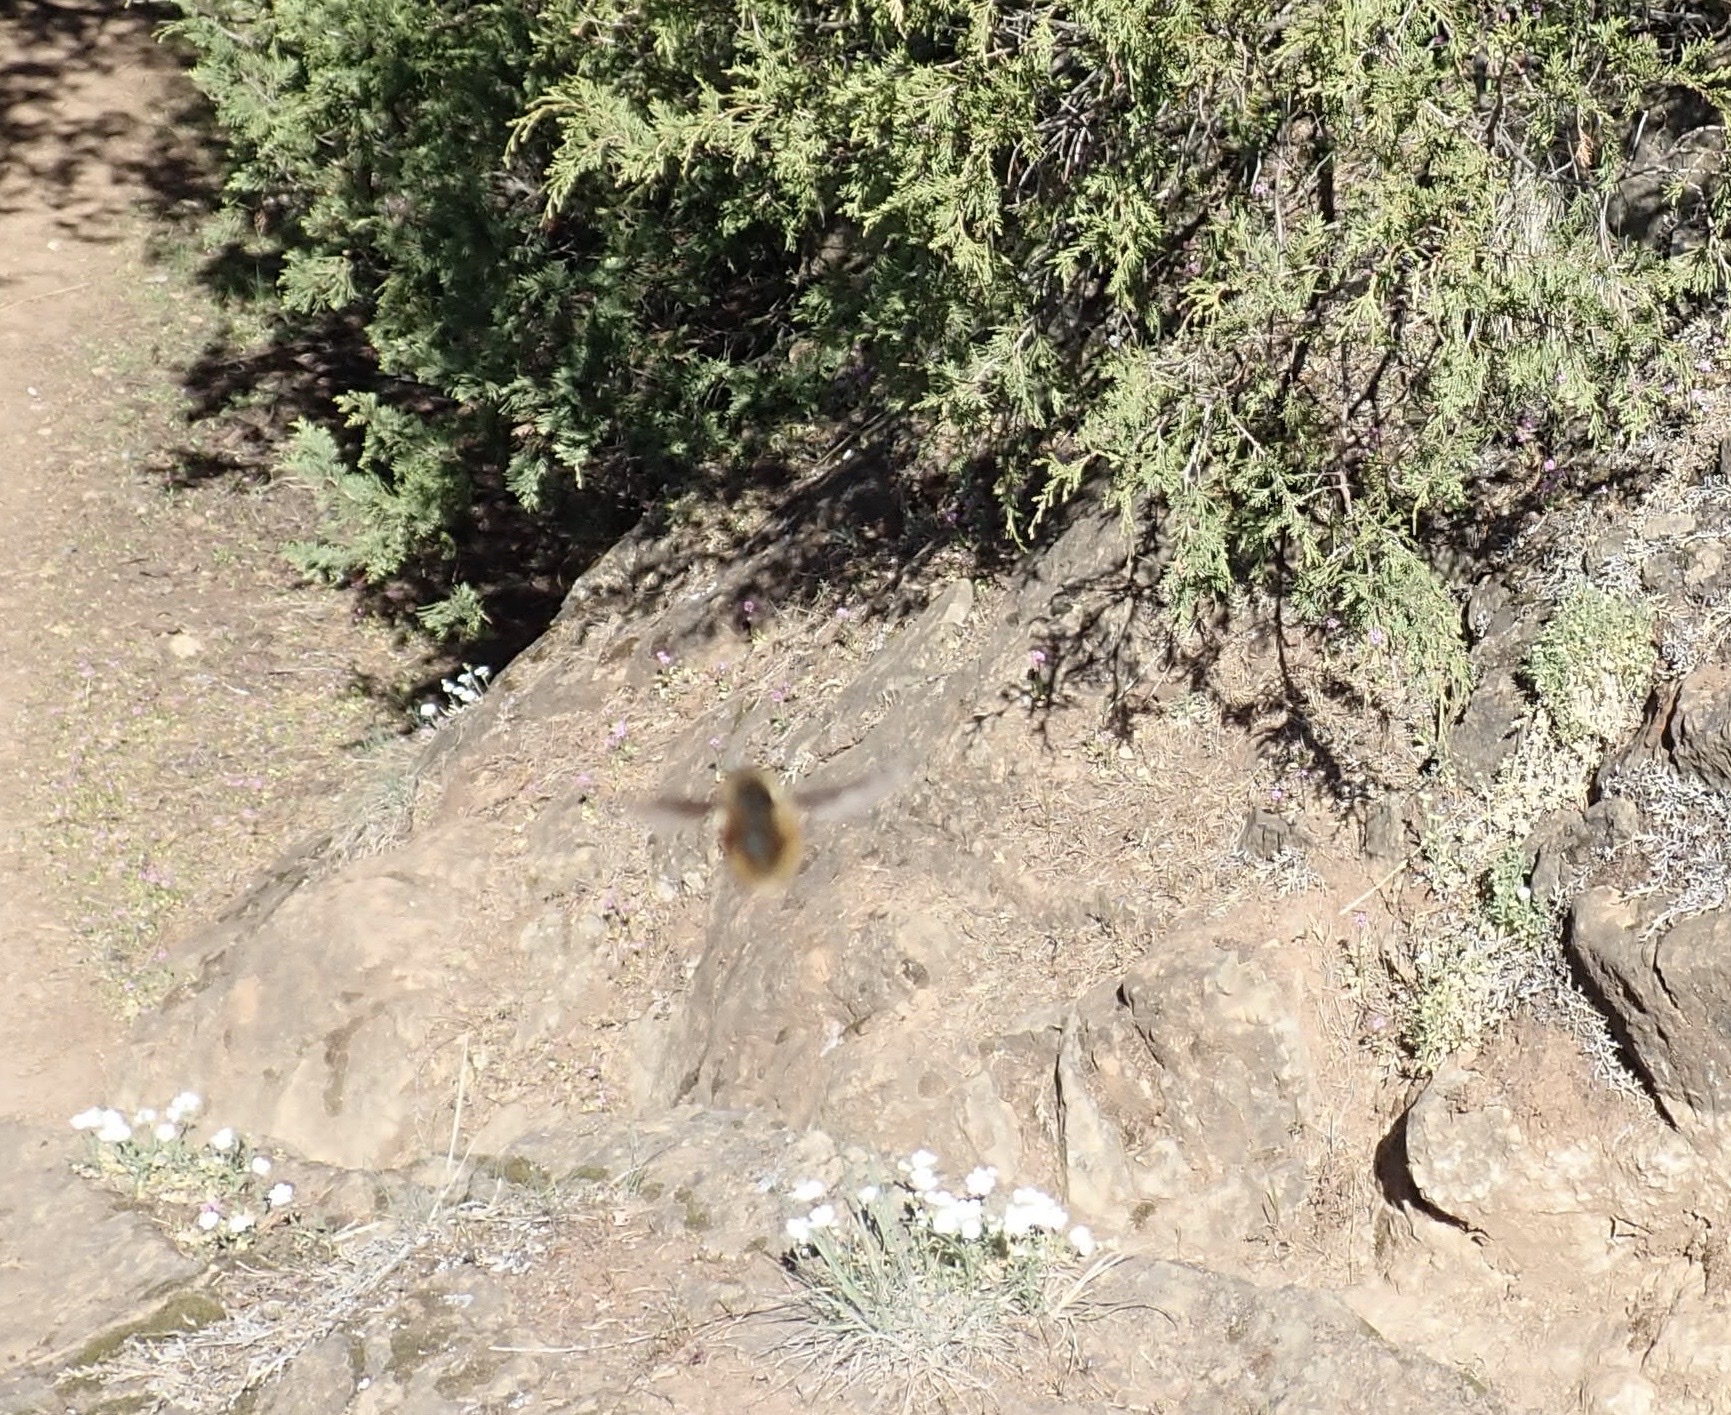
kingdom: Animalia
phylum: Arthropoda
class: Insecta
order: Diptera
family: Bombyliidae
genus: Bombylius
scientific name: Bombylius
